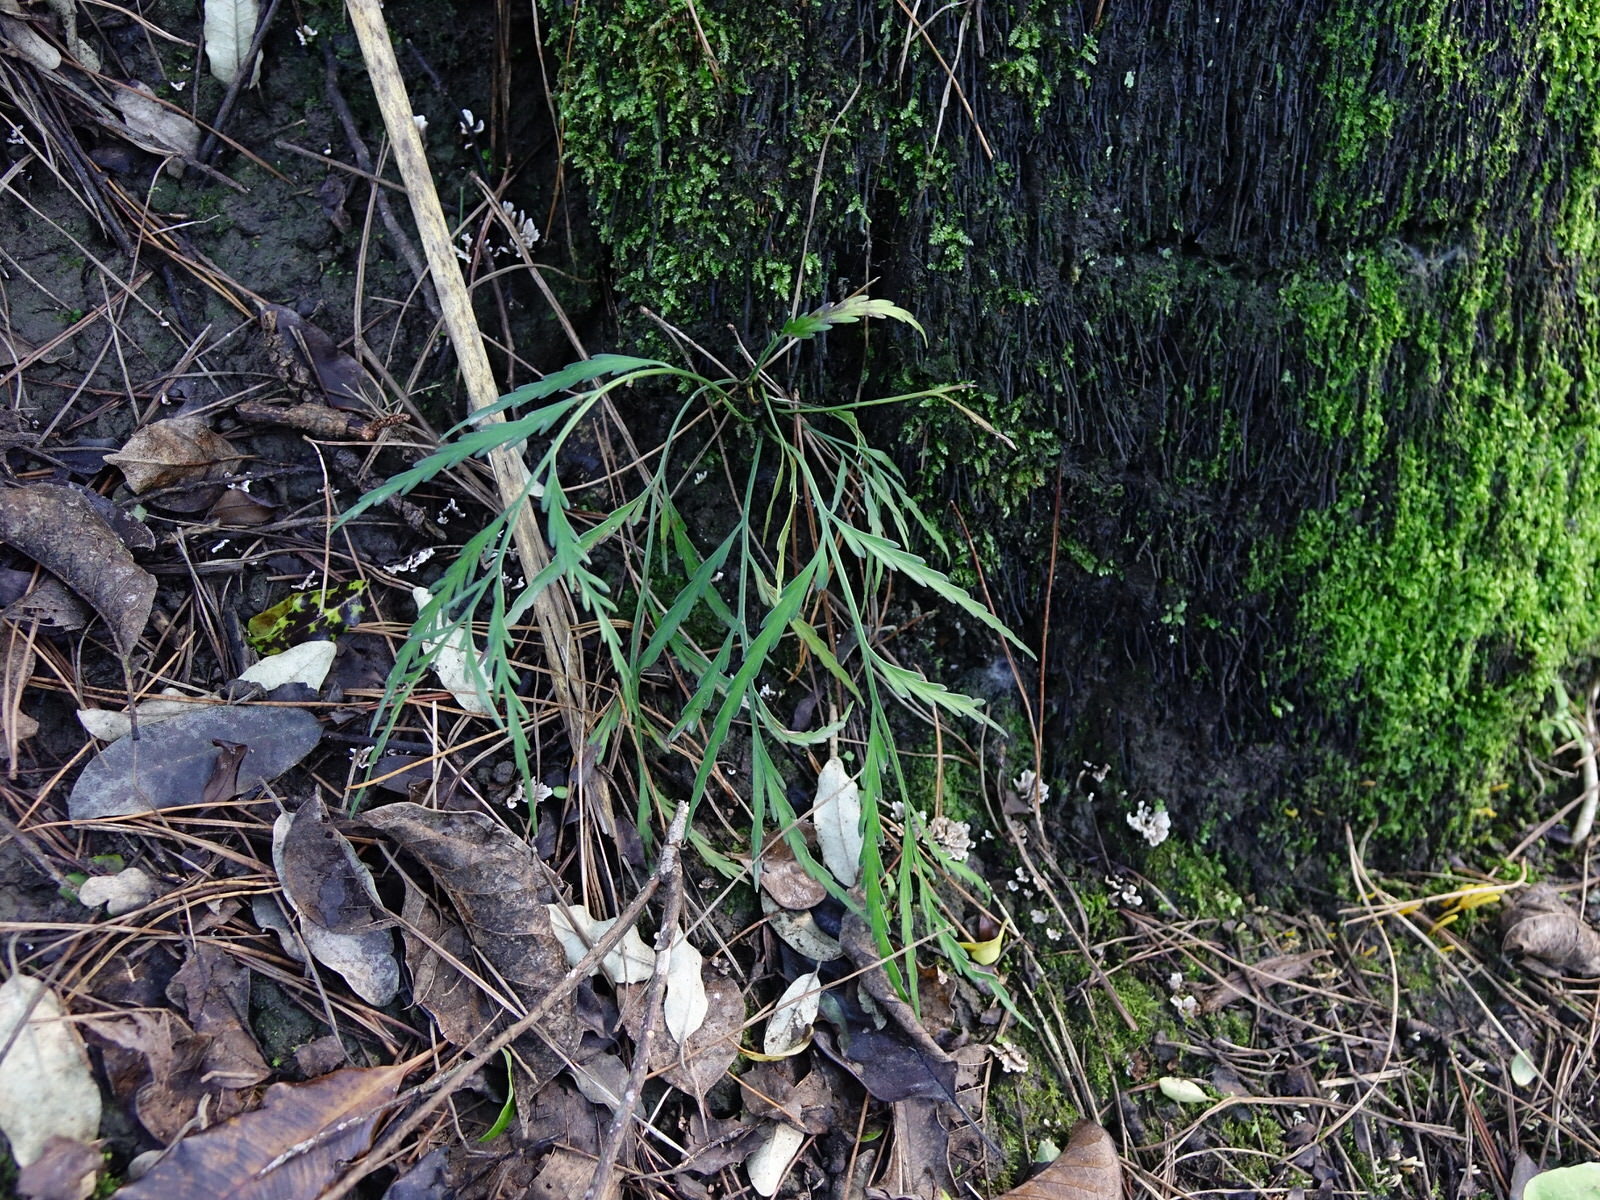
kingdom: Plantae
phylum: Tracheophyta
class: Polypodiopsida
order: Polypodiales
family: Aspleniaceae
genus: Asplenium
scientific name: Asplenium flaccidum
